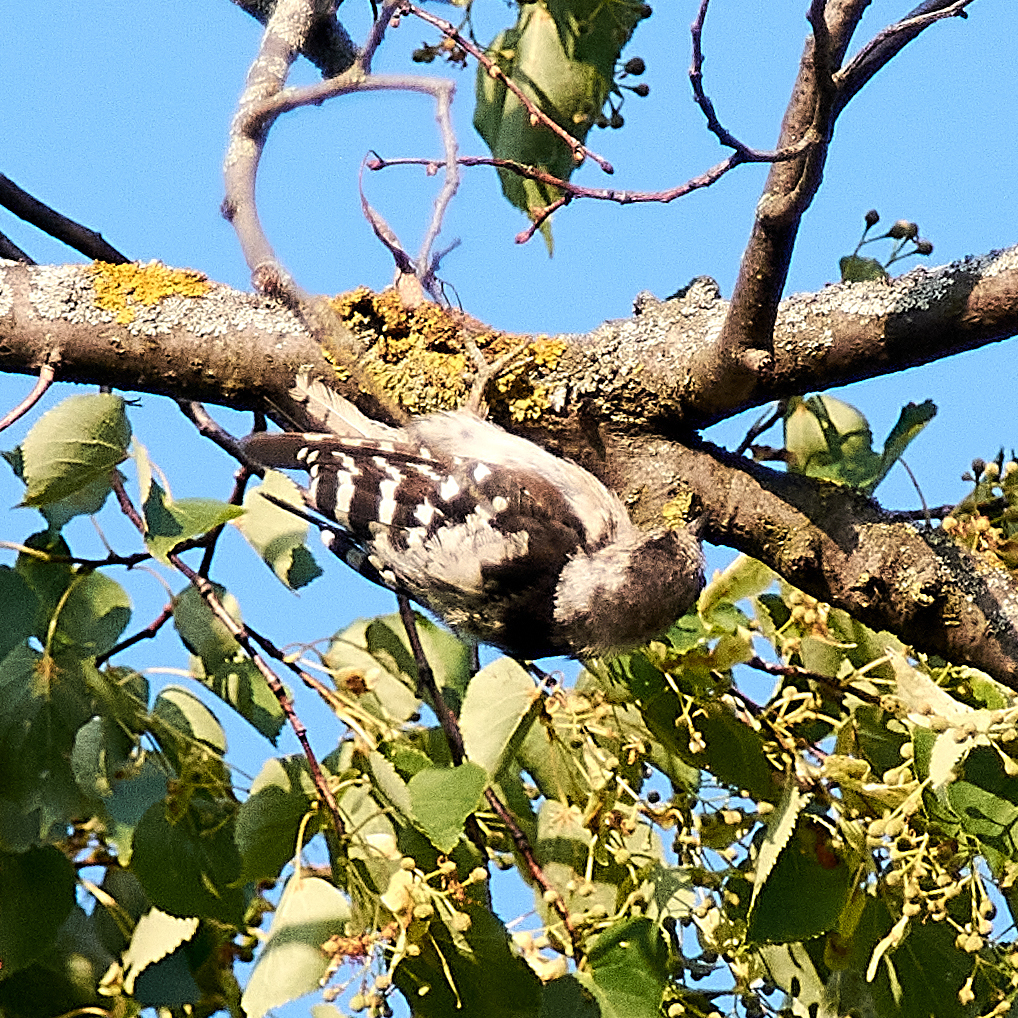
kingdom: Animalia
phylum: Chordata
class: Aves
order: Piciformes
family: Picidae
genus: Dryobates
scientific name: Dryobates minor
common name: Lesser spotted woodpecker
